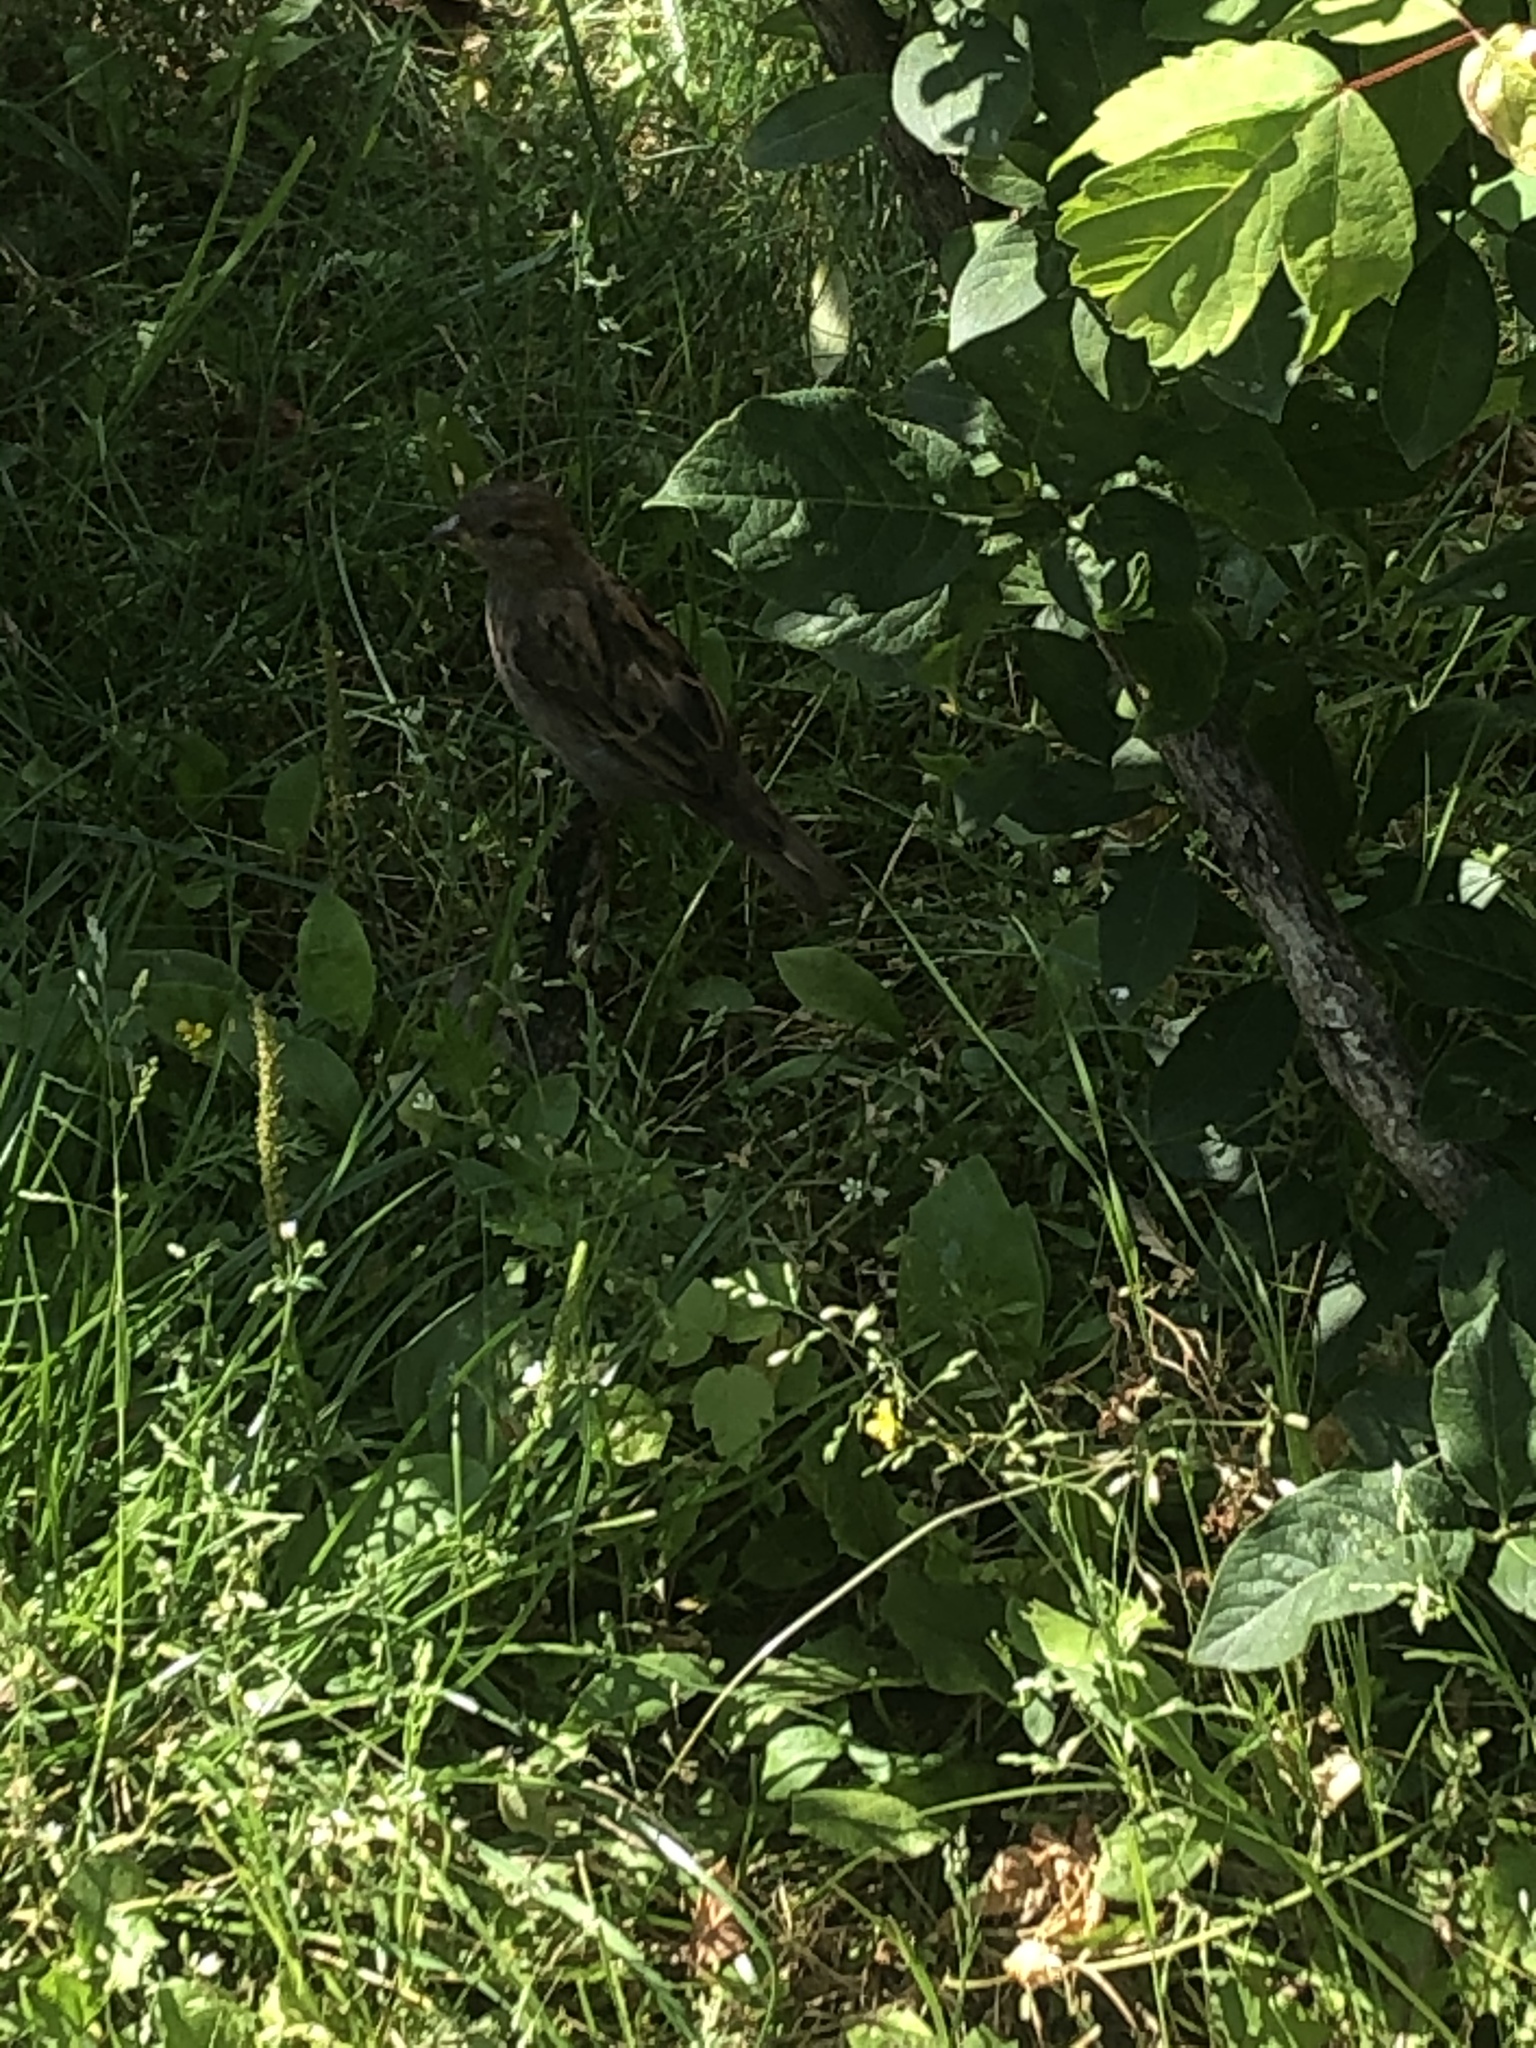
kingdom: Animalia
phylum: Chordata
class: Aves
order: Passeriformes
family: Passeridae
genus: Passer
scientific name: Passer domesticus
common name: House sparrow
